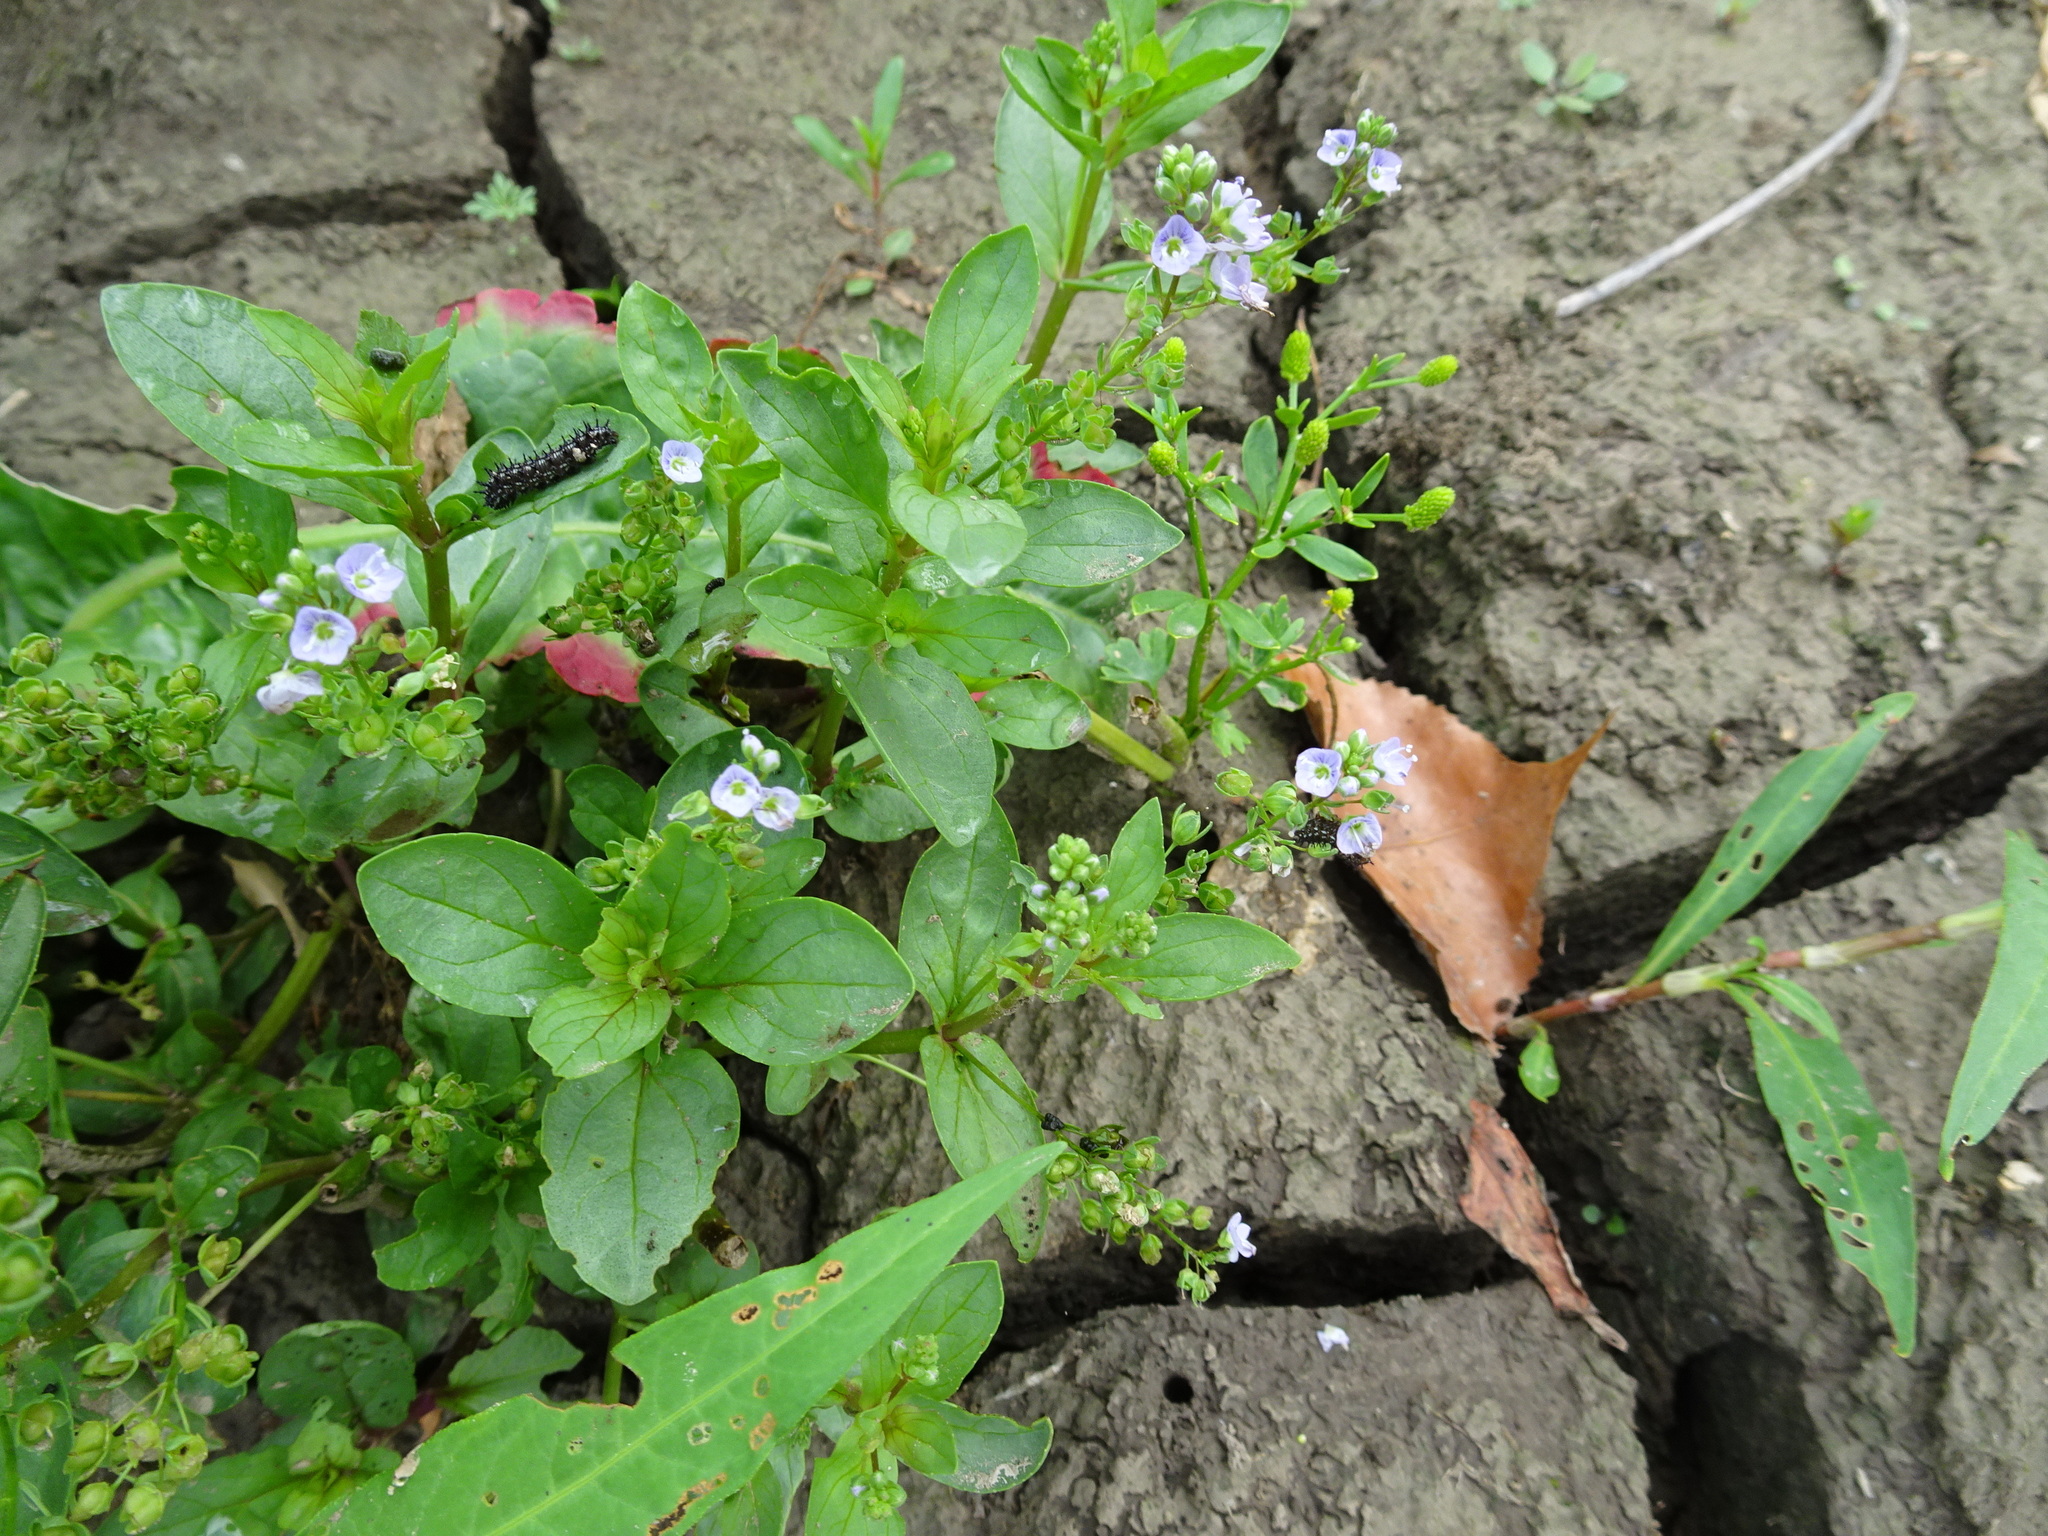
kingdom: Plantae
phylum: Tracheophyta
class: Magnoliopsida
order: Lamiales
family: Plantaginaceae
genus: Veronica
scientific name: Veronica anagallis-aquatica
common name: Water speedwell
